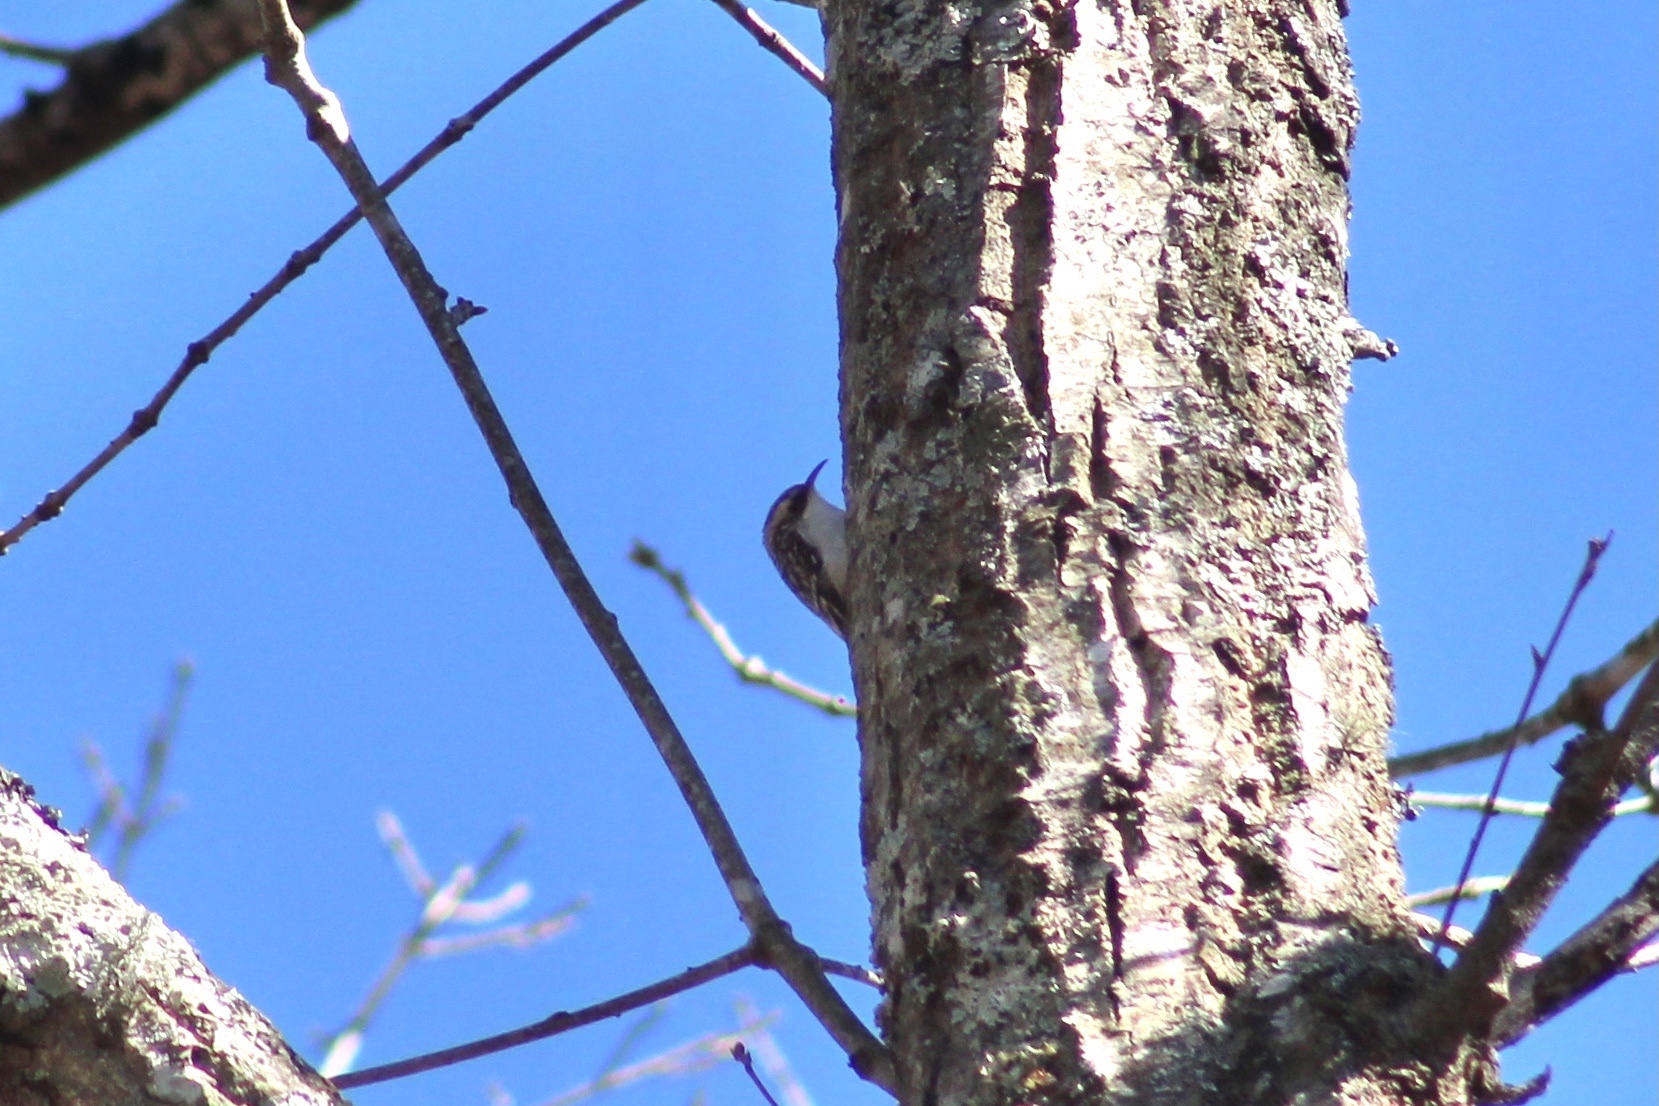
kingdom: Animalia
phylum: Chordata
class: Aves
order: Passeriformes
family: Certhiidae
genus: Certhia
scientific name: Certhia americana
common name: Brown creeper
